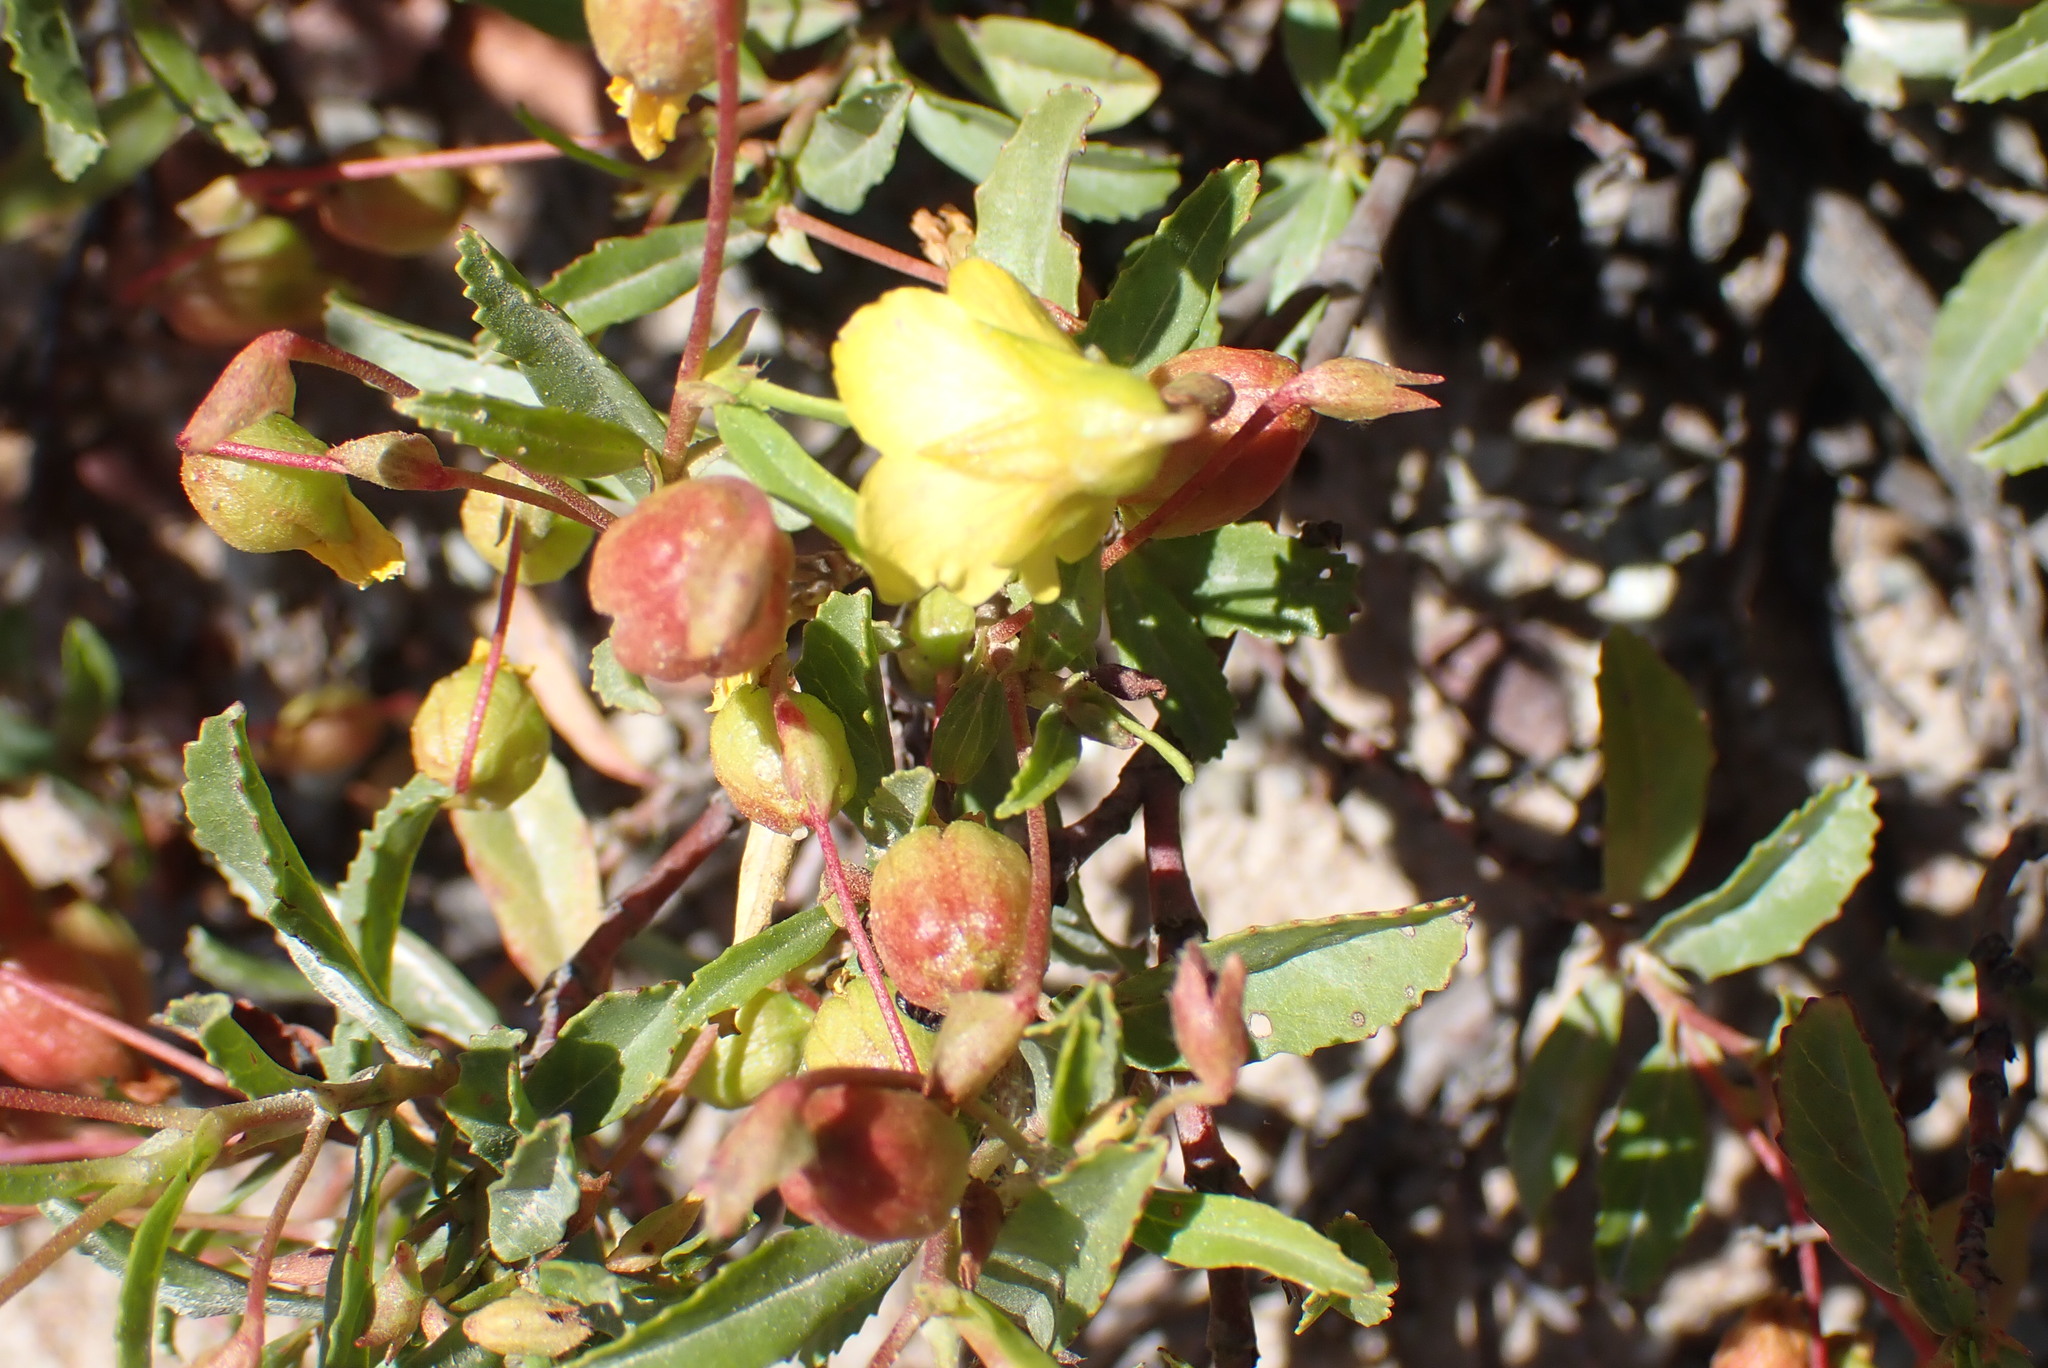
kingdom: Plantae
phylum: Tracheophyta
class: Magnoliopsida
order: Malvales
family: Malvaceae
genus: Hermannia
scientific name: Hermannia saccifera
